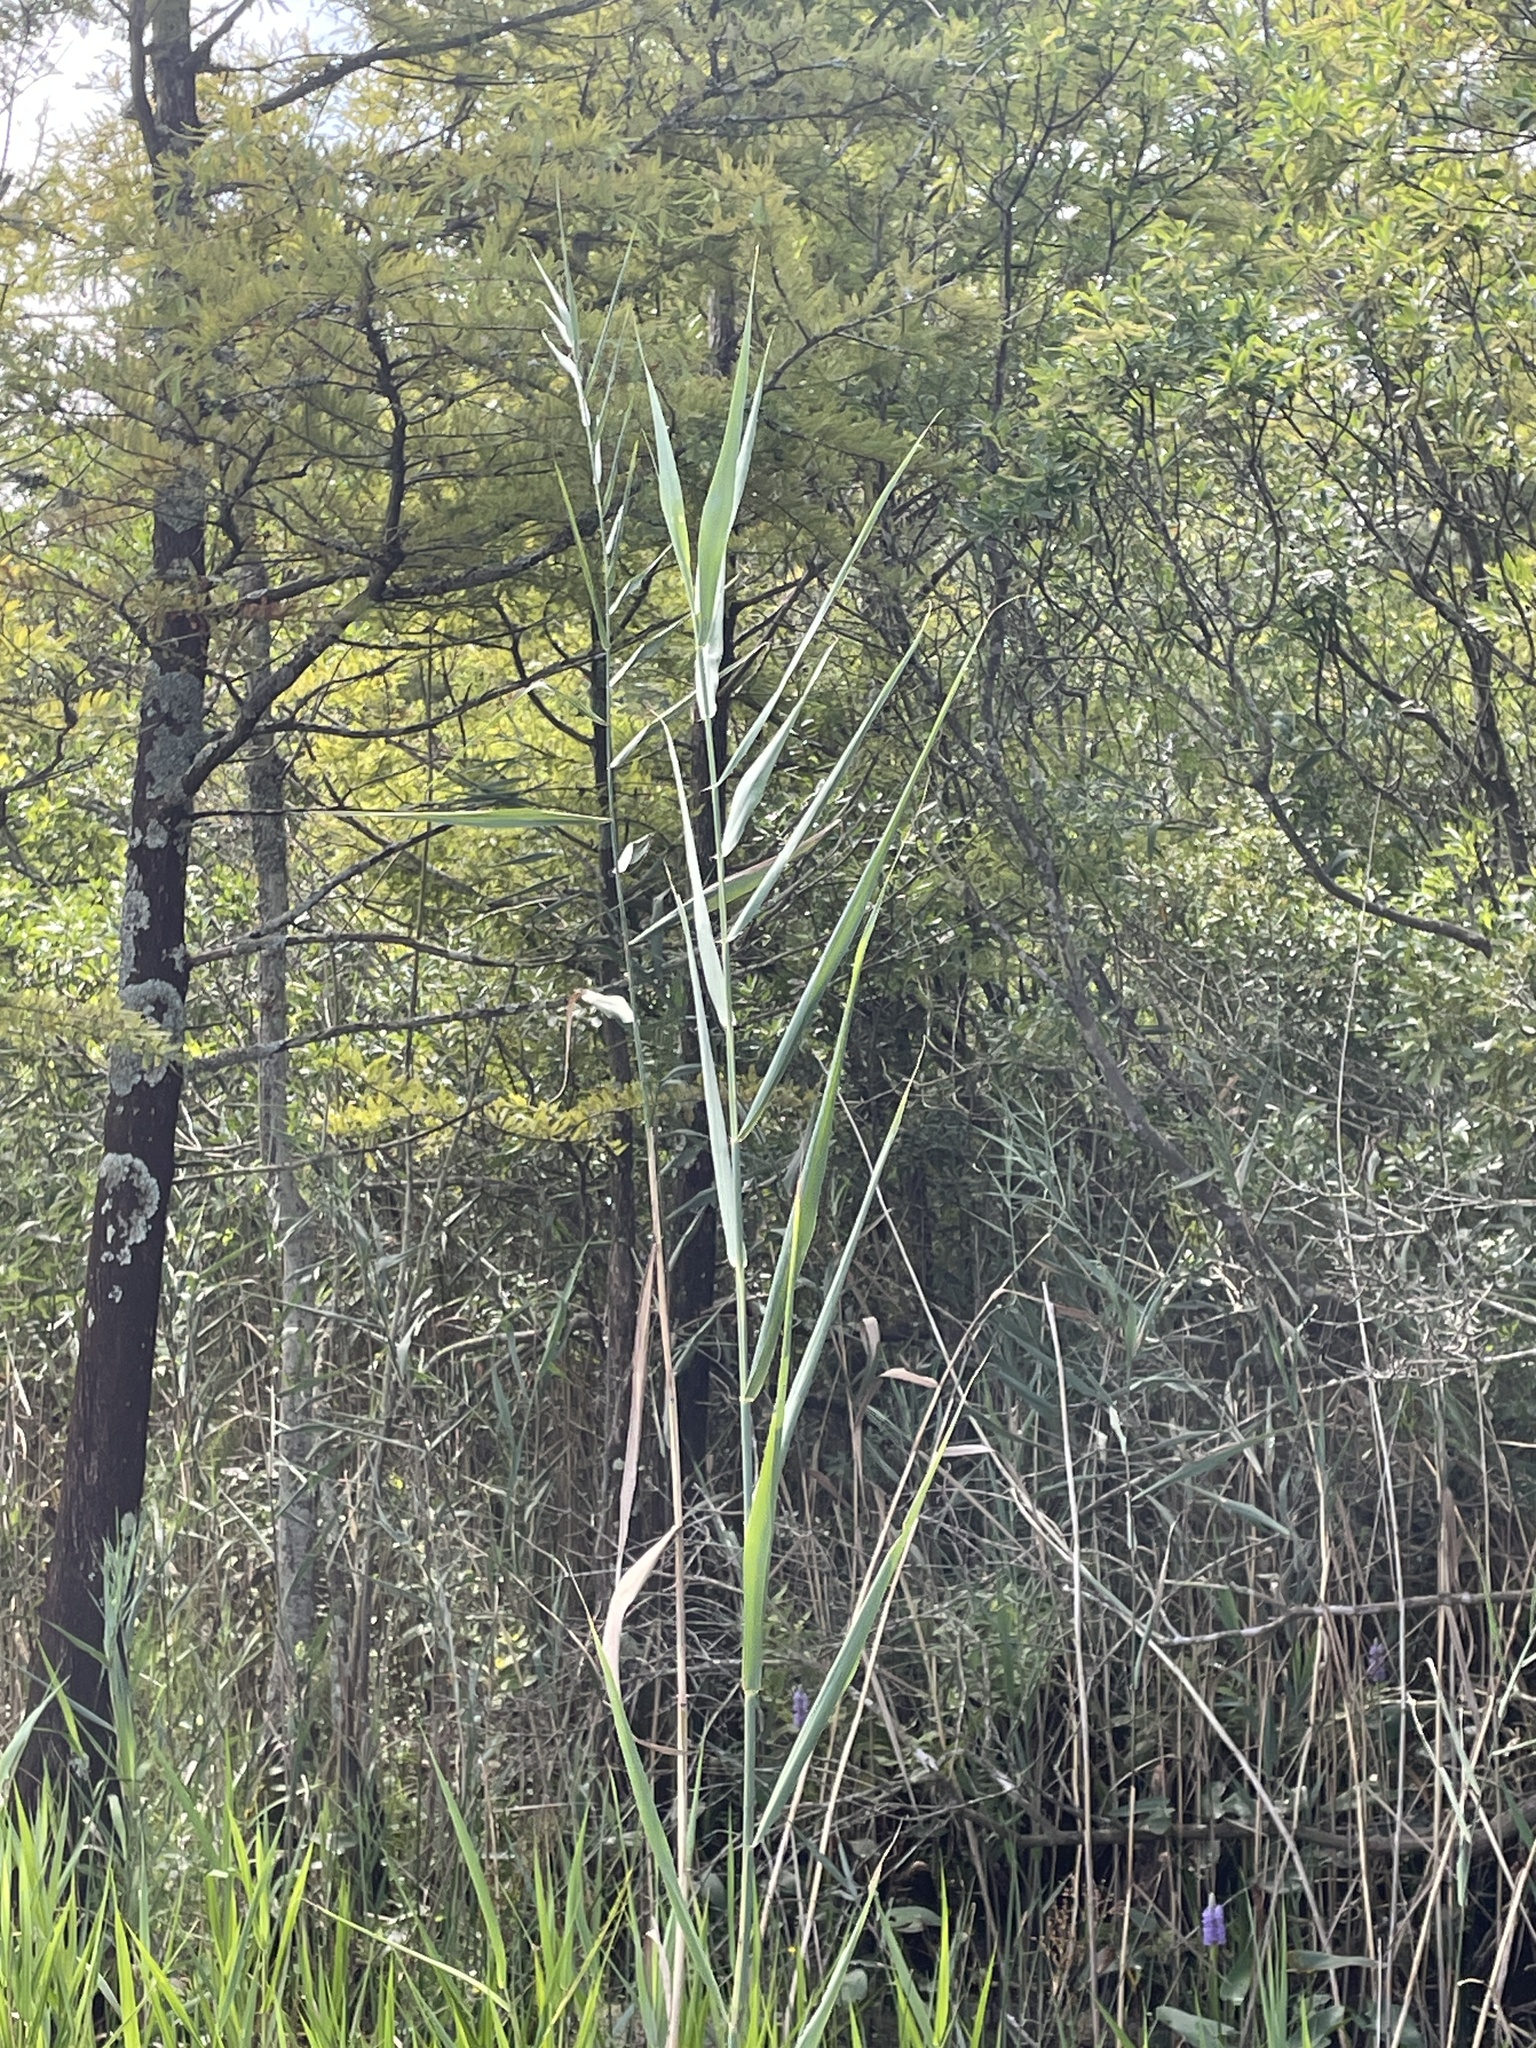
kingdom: Plantae
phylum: Tracheophyta
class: Liliopsida
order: Poales
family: Poaceae
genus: Phragmites
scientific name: Phragmites australis
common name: Common reed
